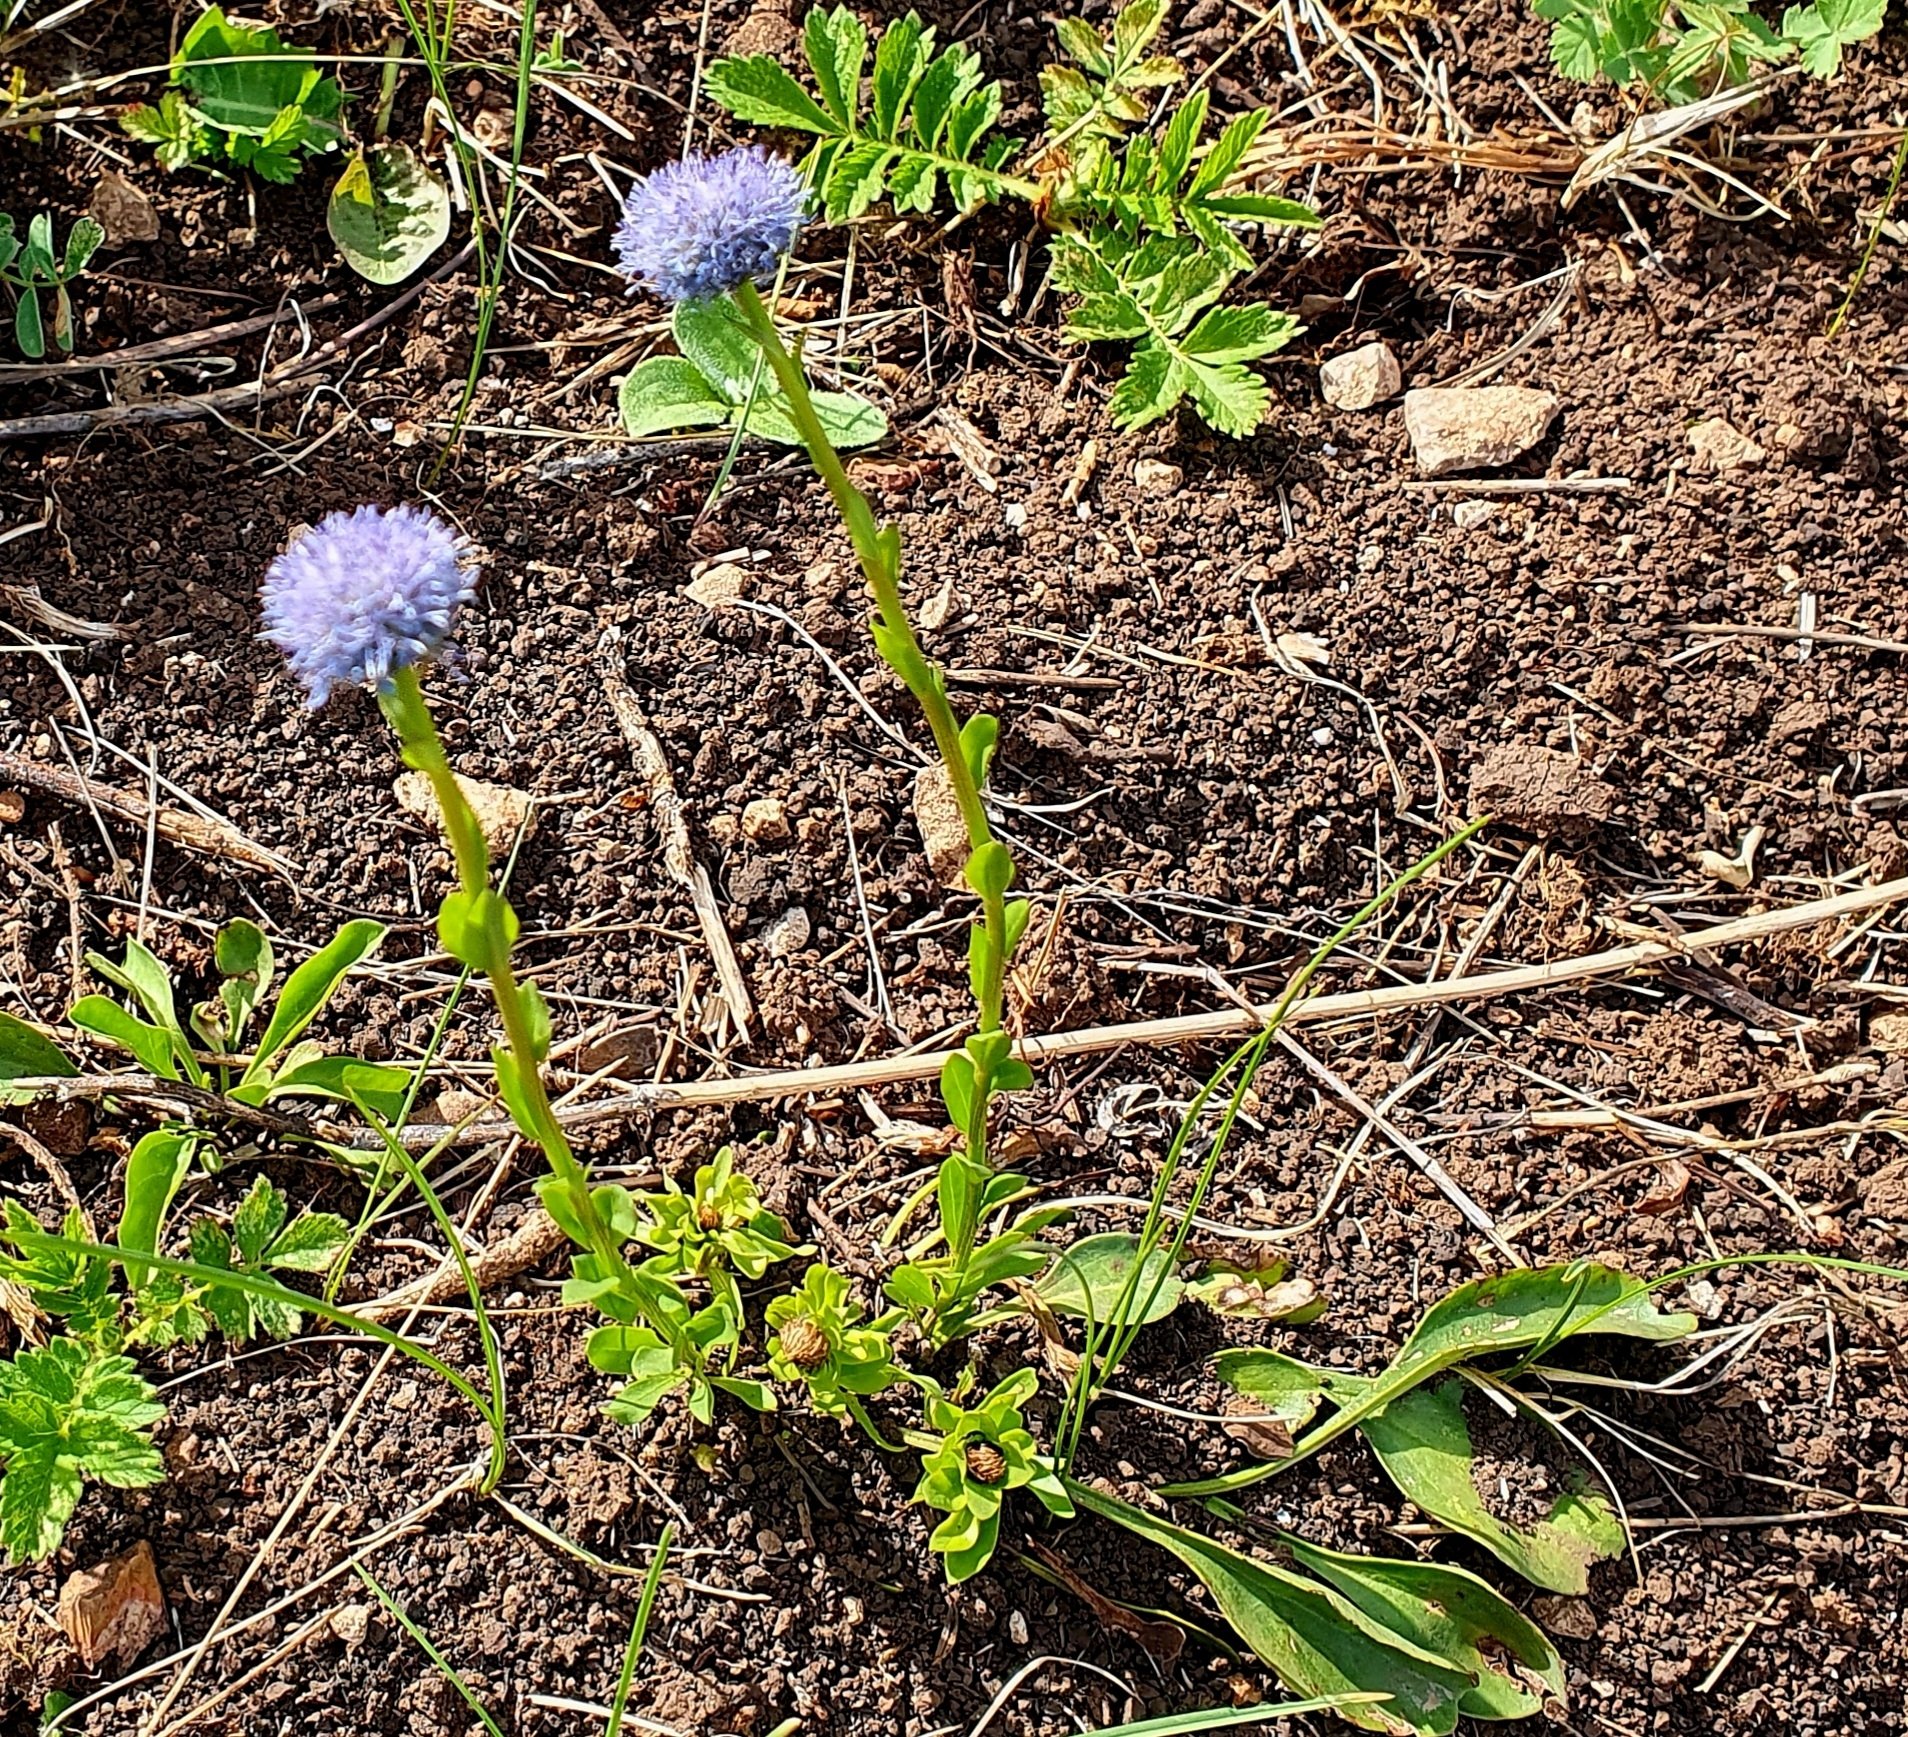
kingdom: Plantae
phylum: Tracheophyta
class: Magnoliopsida
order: Lamiales
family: Plantaginaceae
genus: Globularia
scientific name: Globularia bisnagarica
